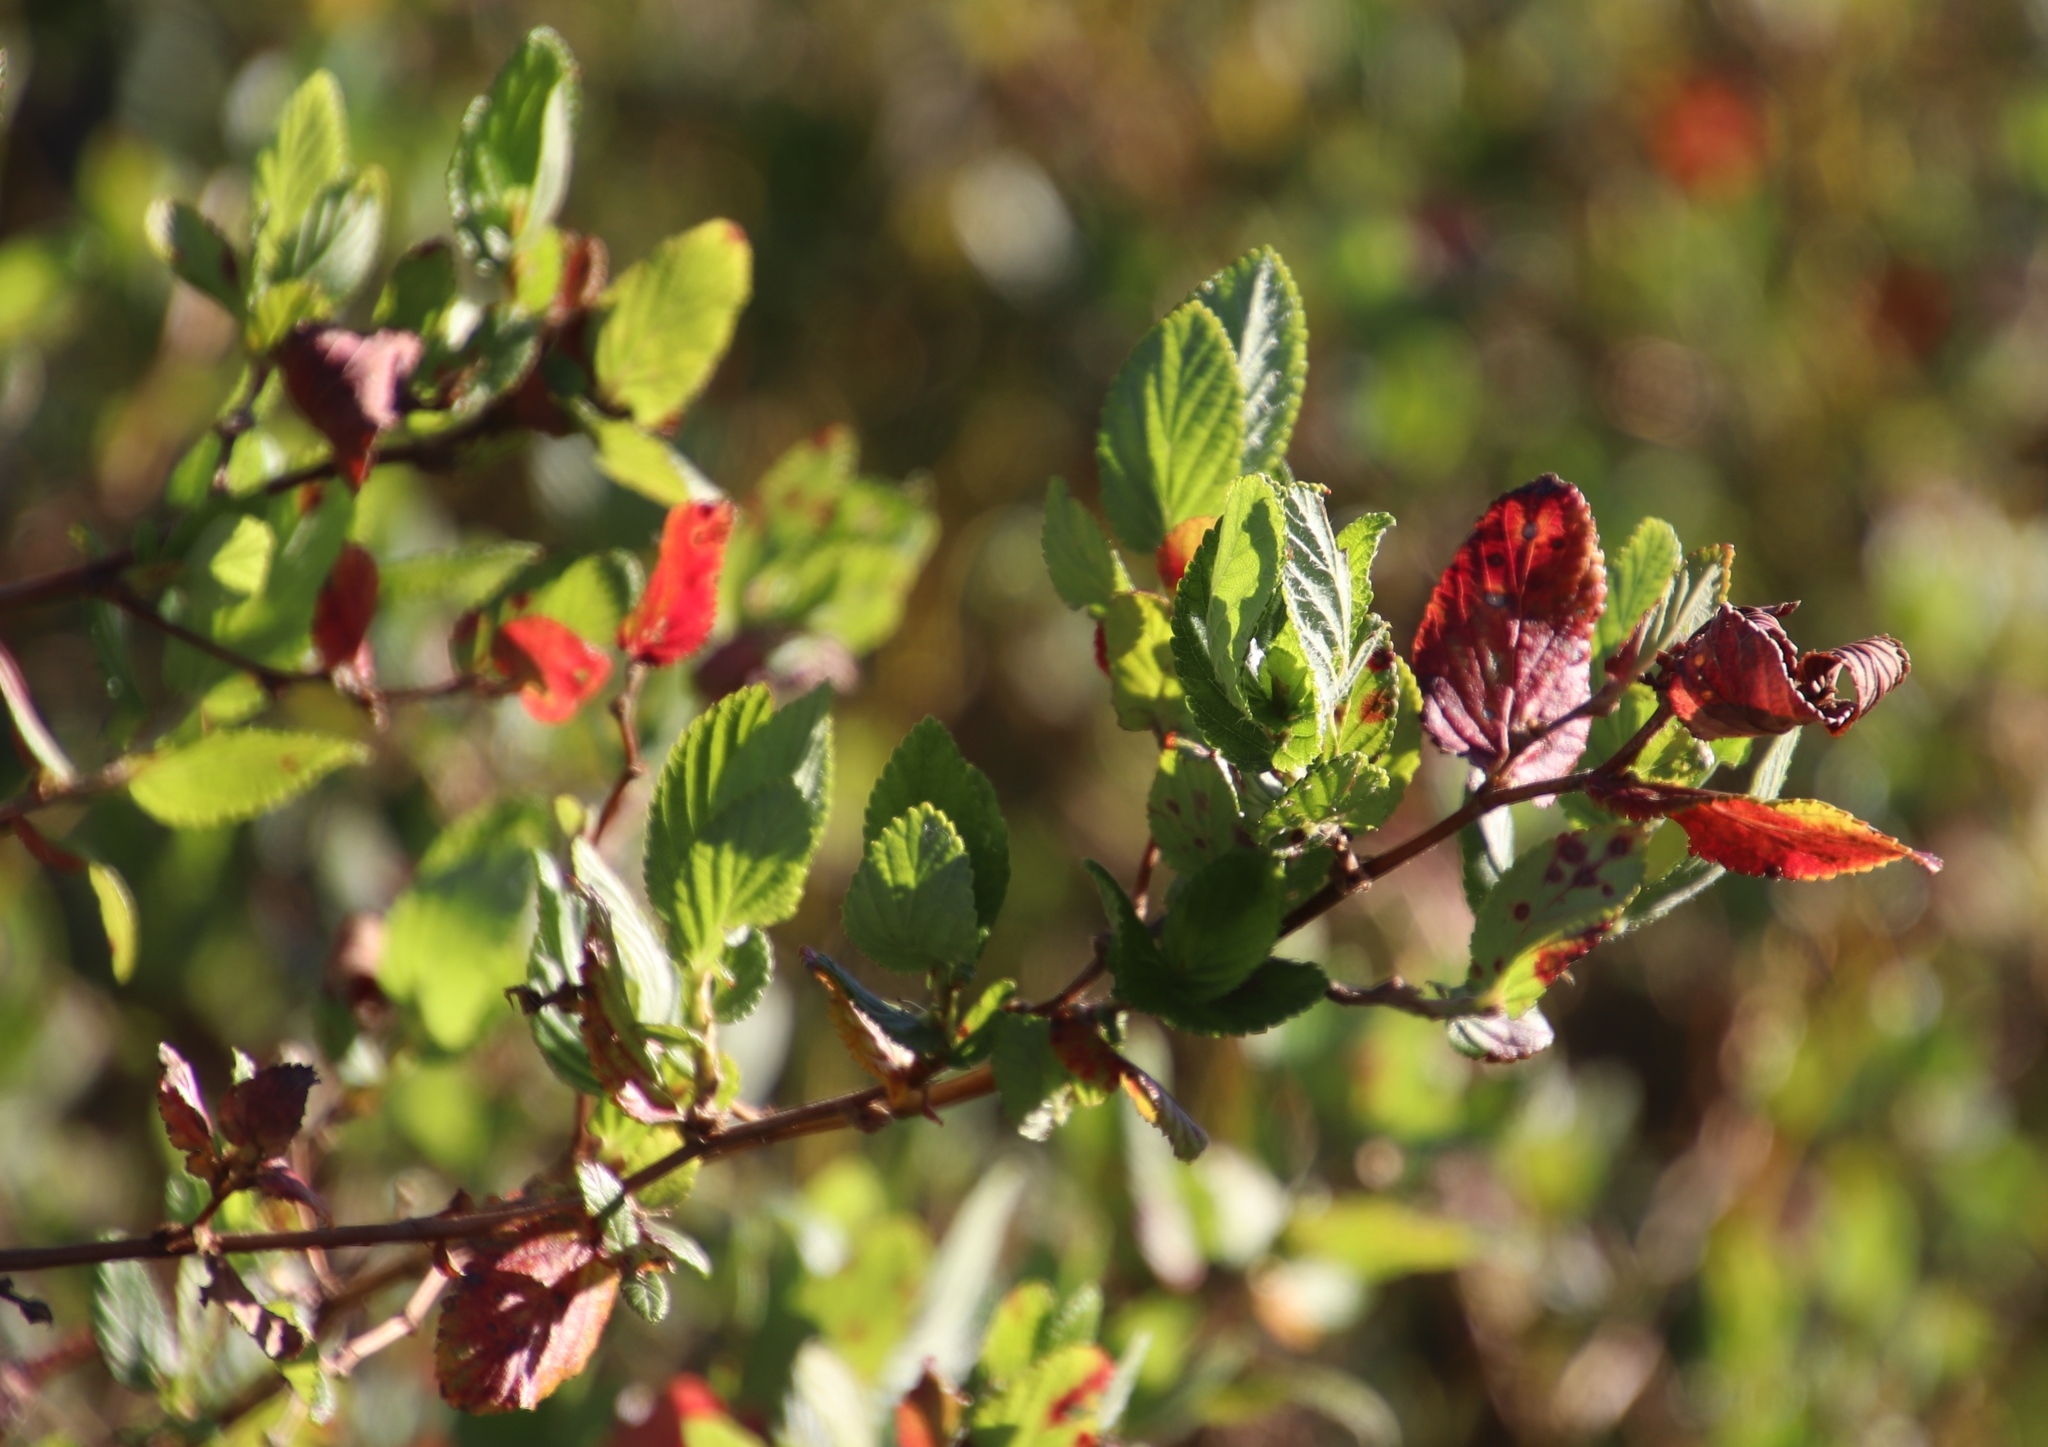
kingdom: Plantae
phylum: Tracheophyta
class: Magnoliopsida
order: Rosales
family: Rosaceae
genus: Cliffortia
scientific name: Cliffortia odorata
